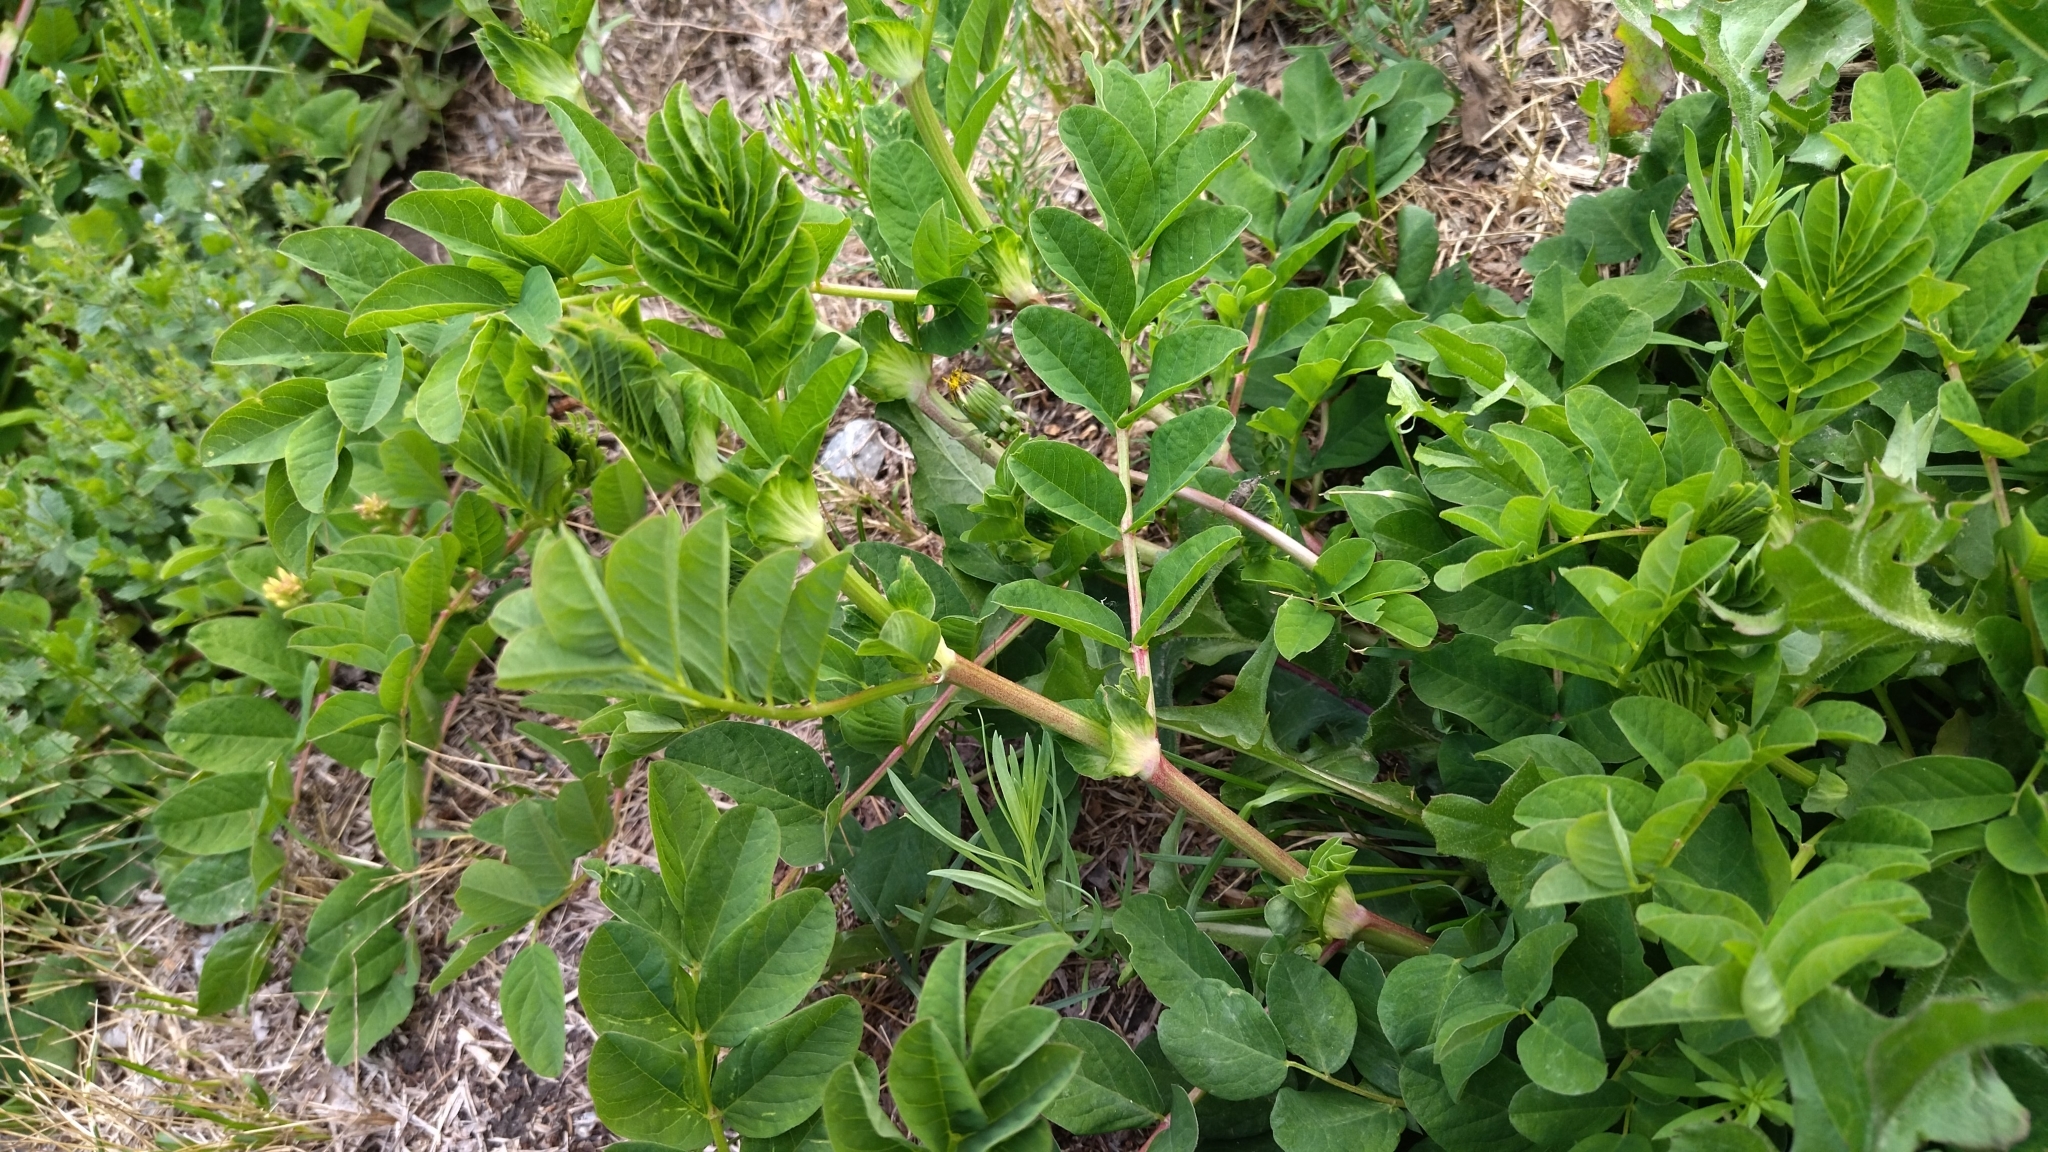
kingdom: Plantae
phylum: Tracheophyta
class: Magnoliopsida
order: Fabales
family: Fabaceae
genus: Astragalus
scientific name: Astragalus glycyphyllos
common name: Wild liquorice
